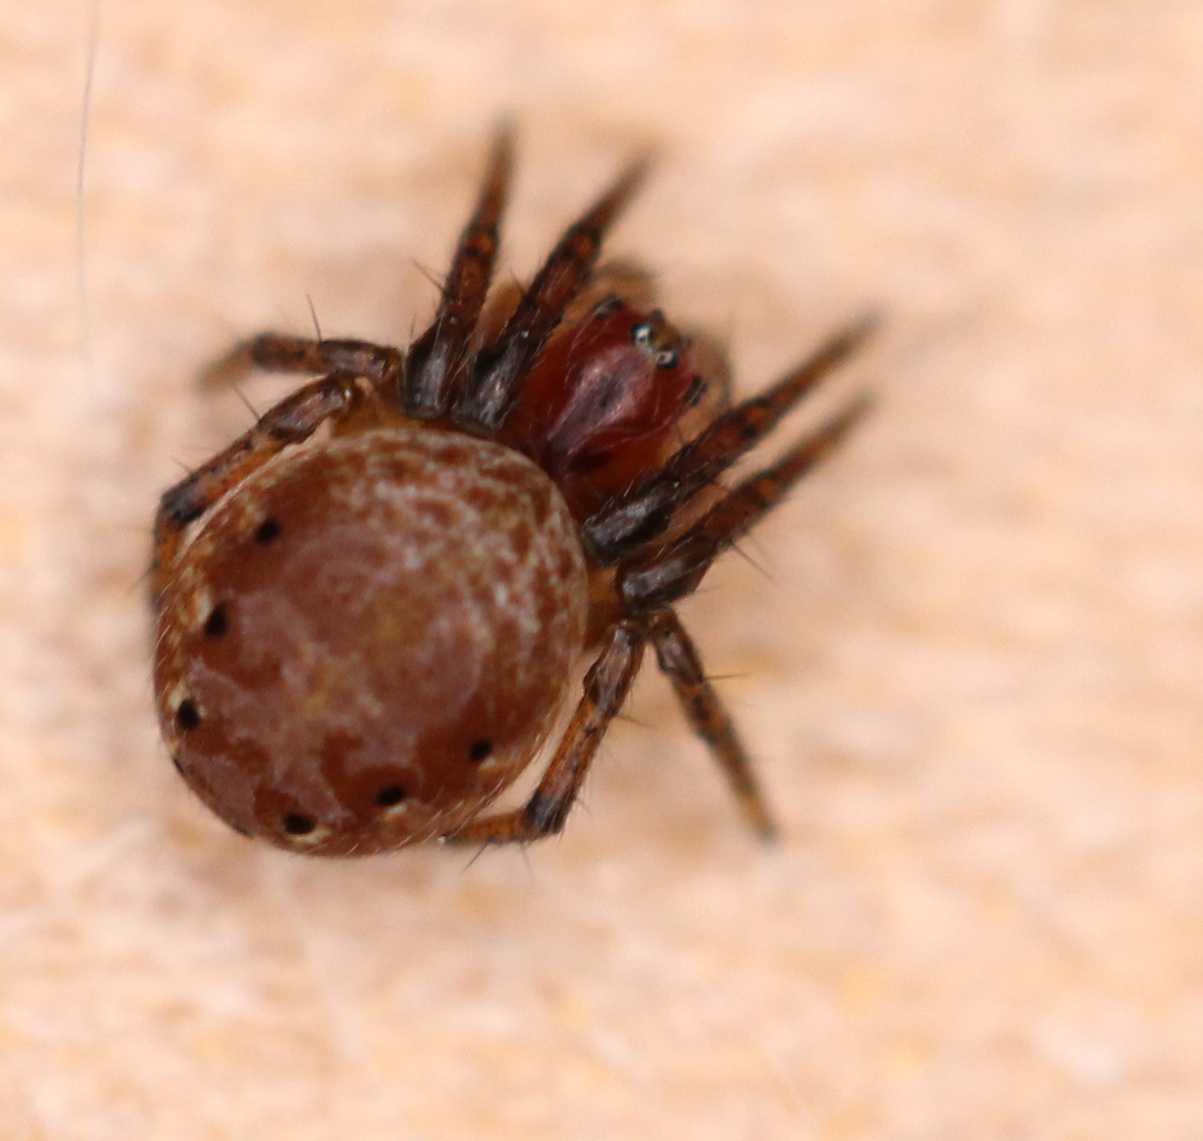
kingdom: Animalia
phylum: Arthropoda
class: Arachnida
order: Araneae
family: Araneidae
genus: Araniella
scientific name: Araniella
